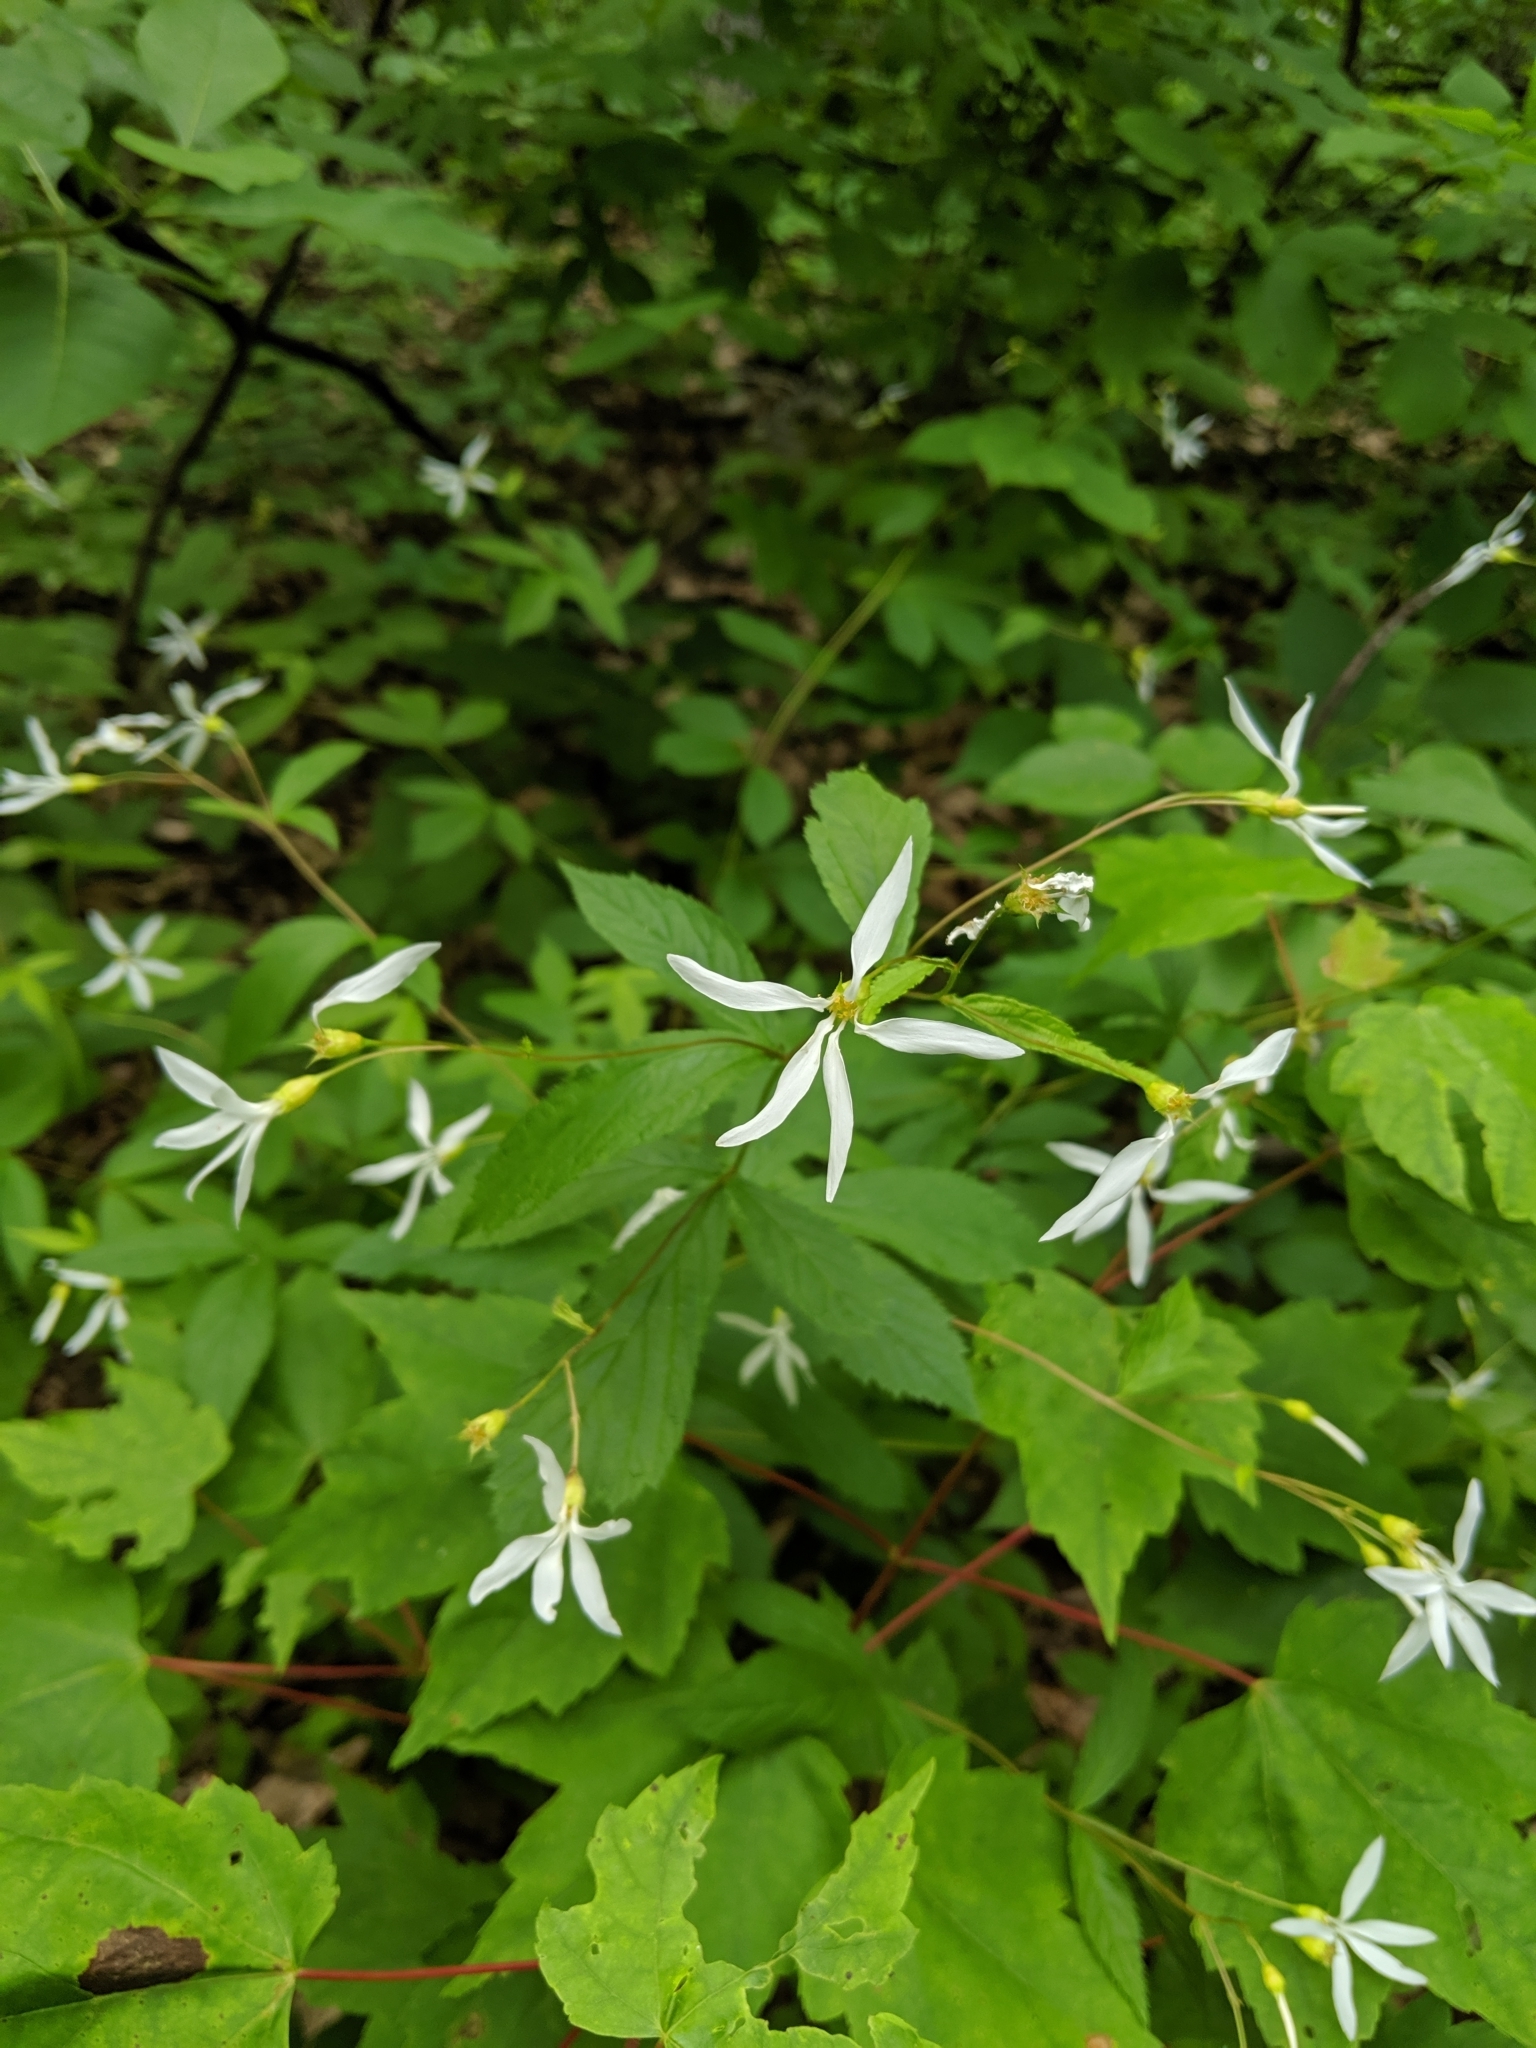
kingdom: Plantae
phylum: Tracheophyta
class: Magnoliopsida
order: Rosales
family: Rosaceae
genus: Gillenia
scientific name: Gillenia trifoliata
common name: Bowman's-root
